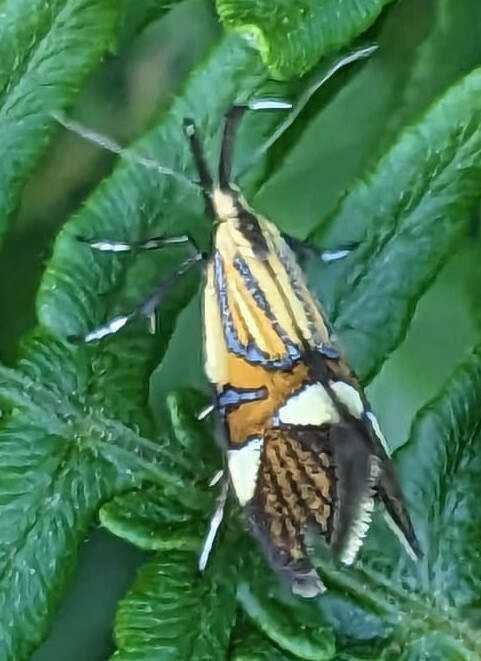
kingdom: Animalia
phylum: Arthropoda
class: Insecta
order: Lepidoptera
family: Oecophoridae
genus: Oecophora
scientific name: Oecophora Alabonia geoffrella
